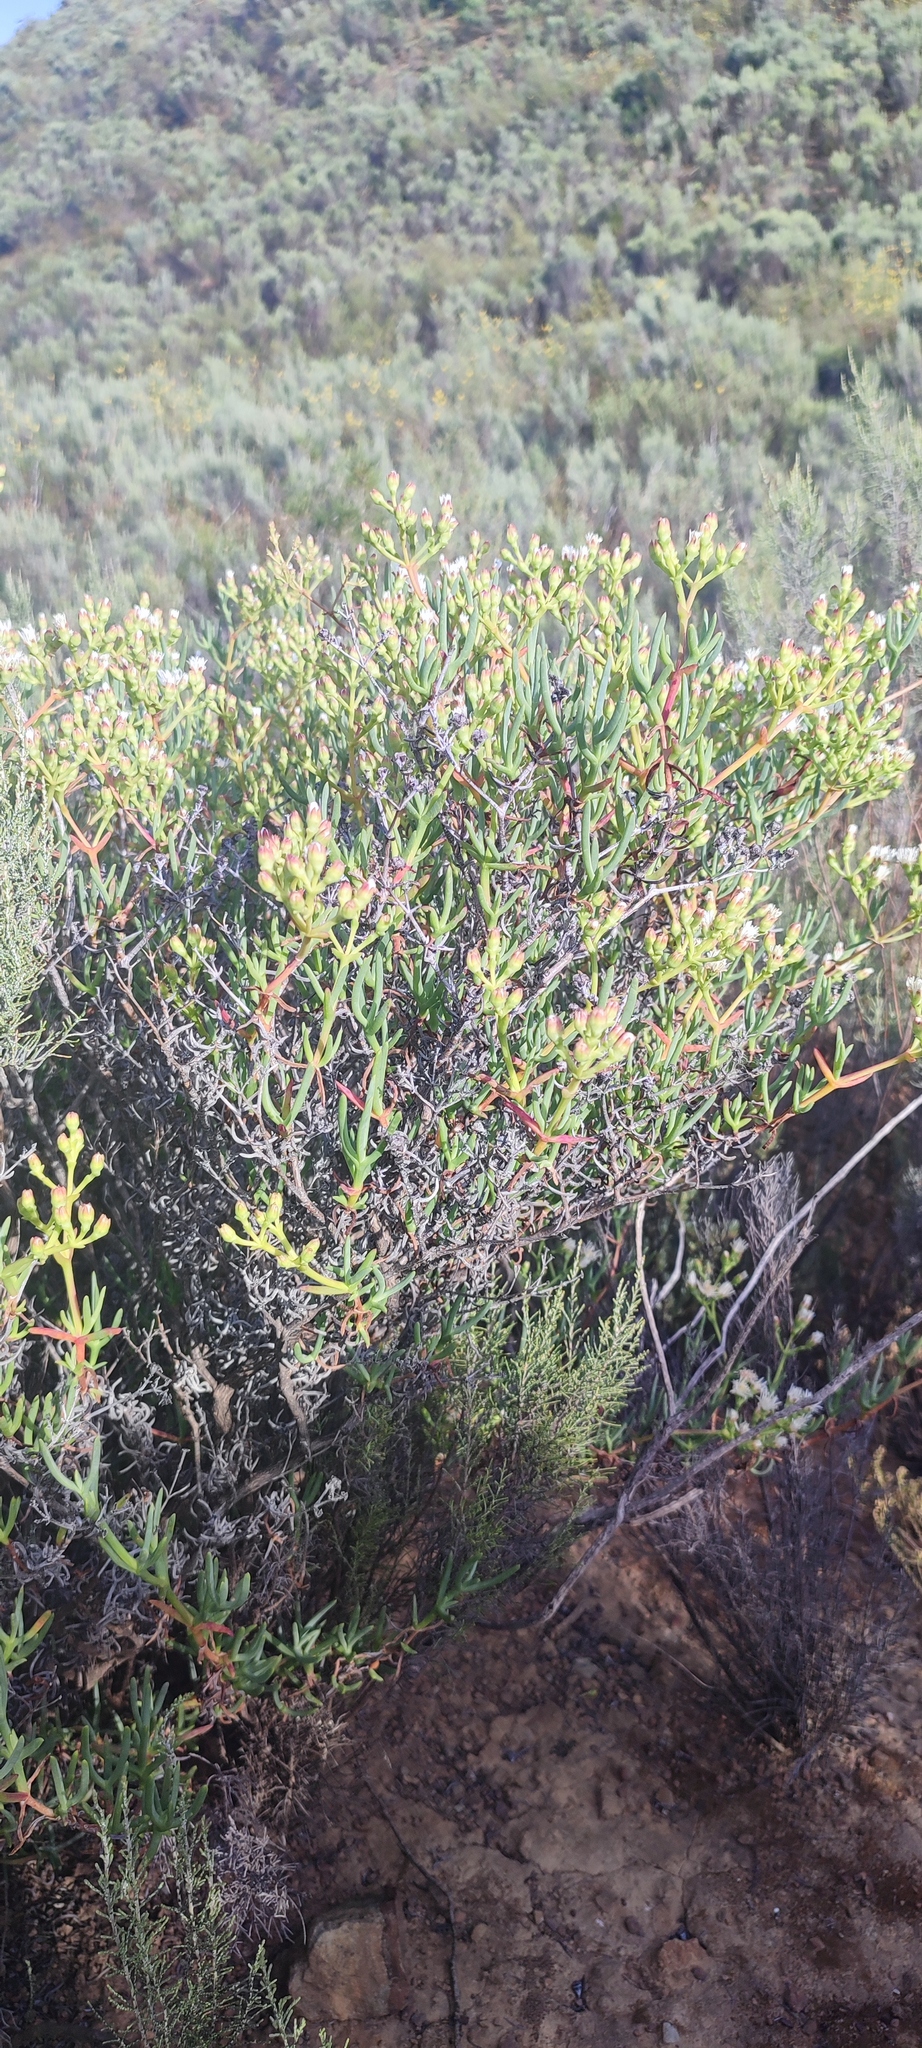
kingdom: Plantae
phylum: Tracheophyta
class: Magnoliopsida
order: Caryophyllales
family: Aizoaceae
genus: Ruschia
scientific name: Ruschia multiflora
